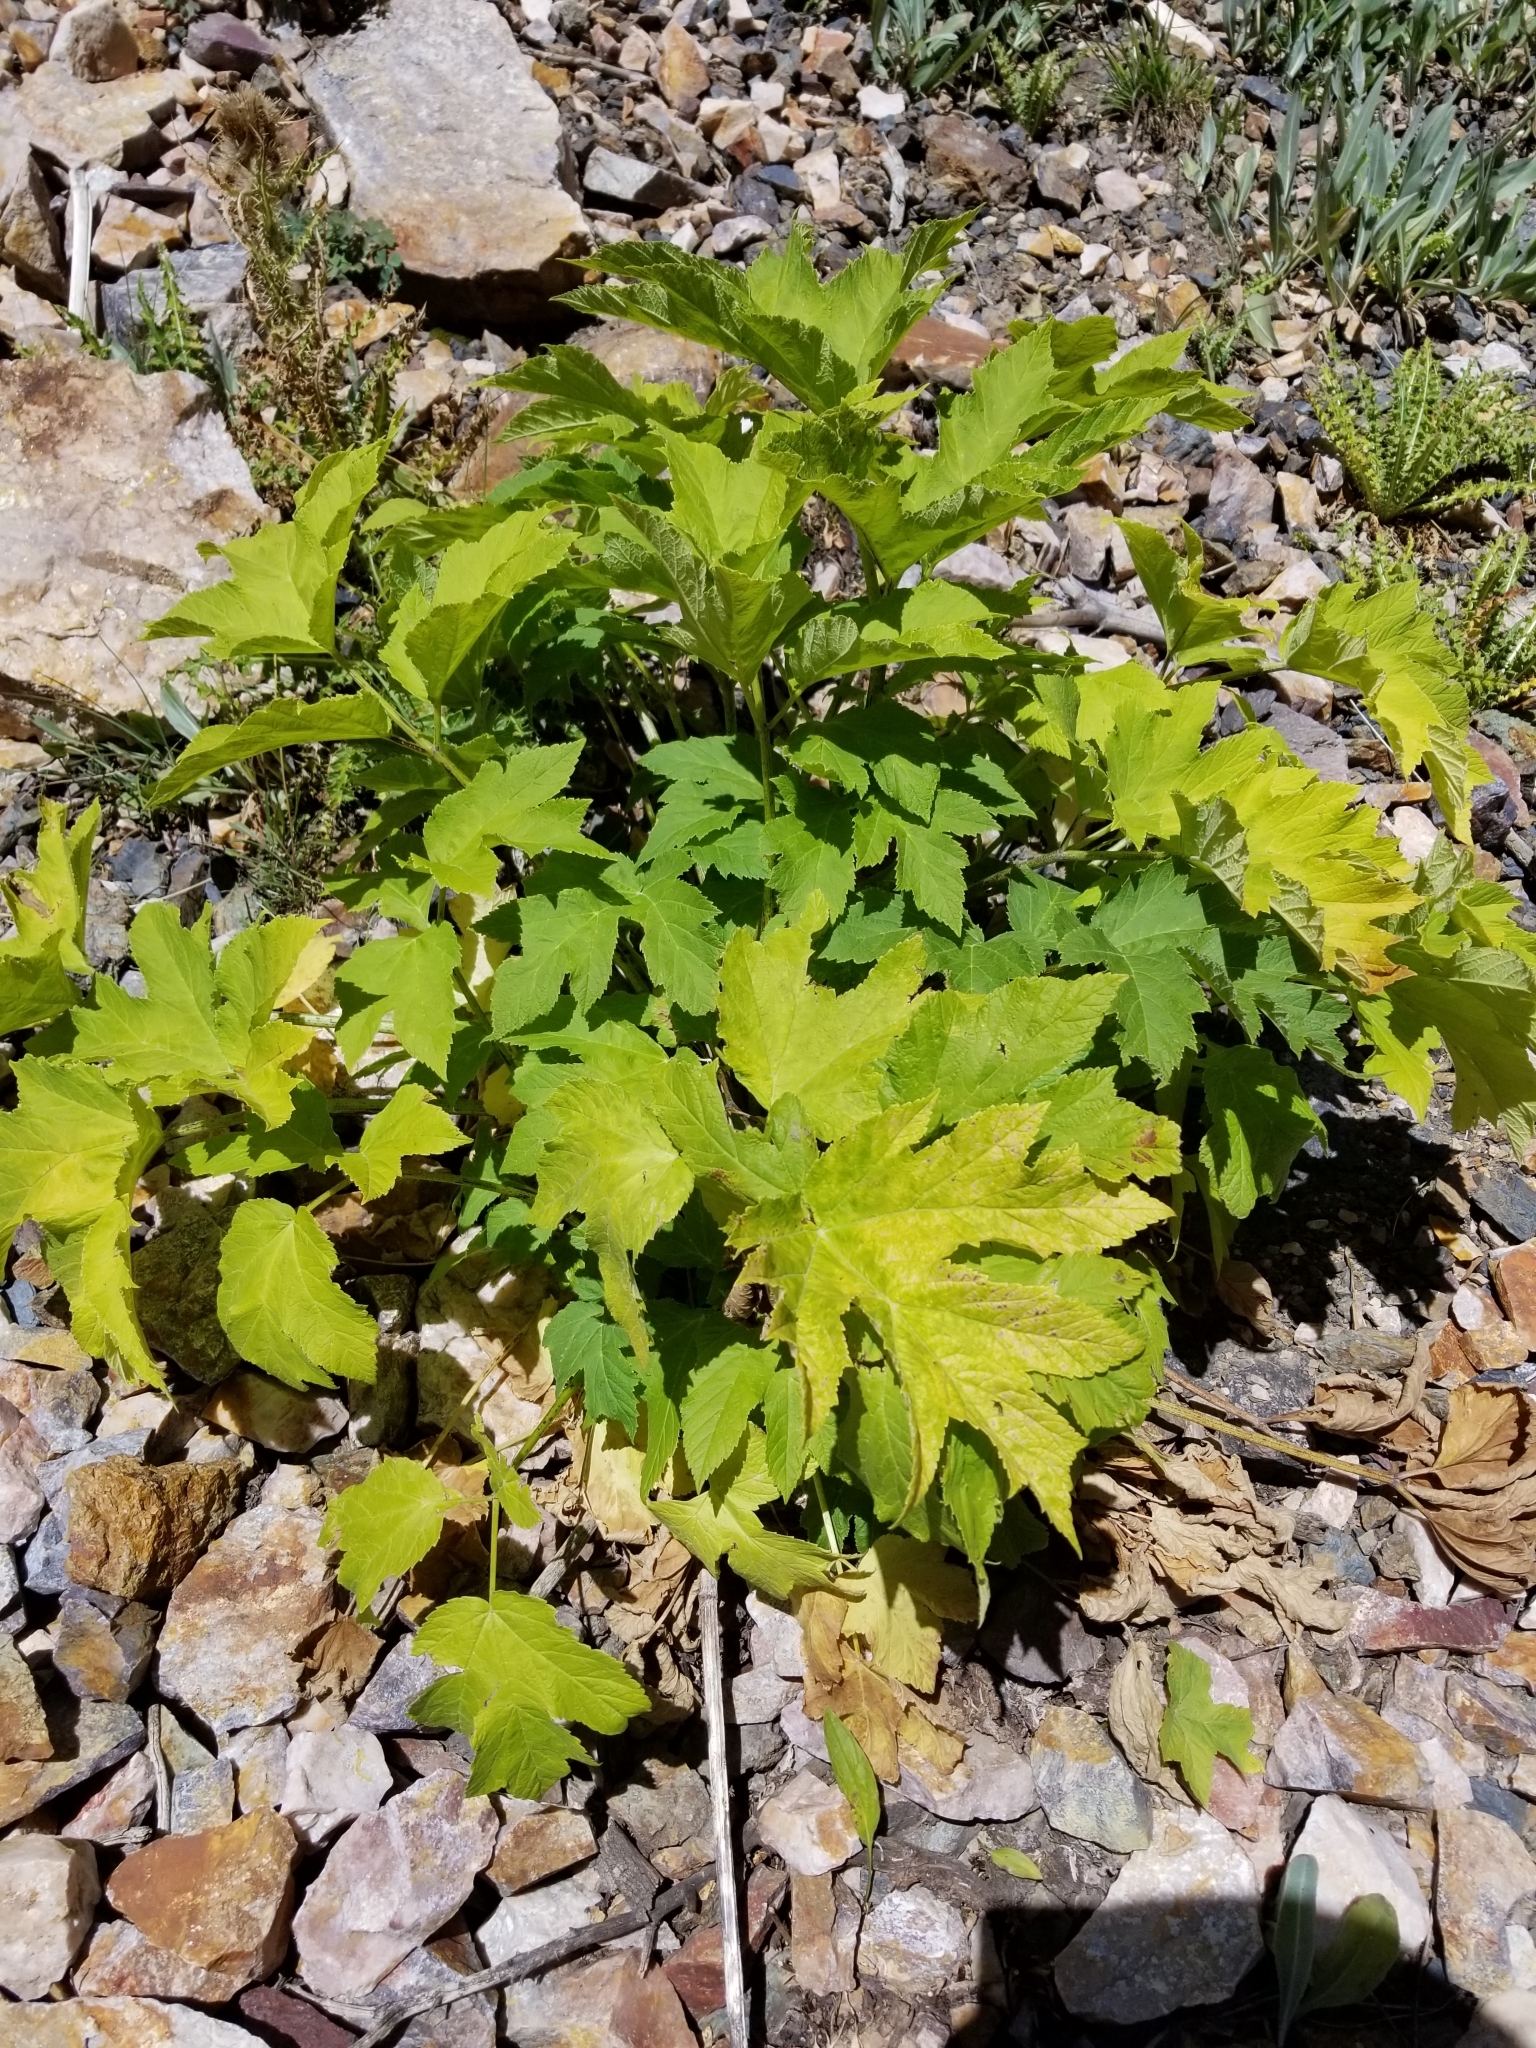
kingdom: Plantae
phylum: Tracheophyta
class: Magnoliopsida
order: Apiales
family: Apiaceae
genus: Heracleum
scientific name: Heracleum maximum
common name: American cow parsnip
